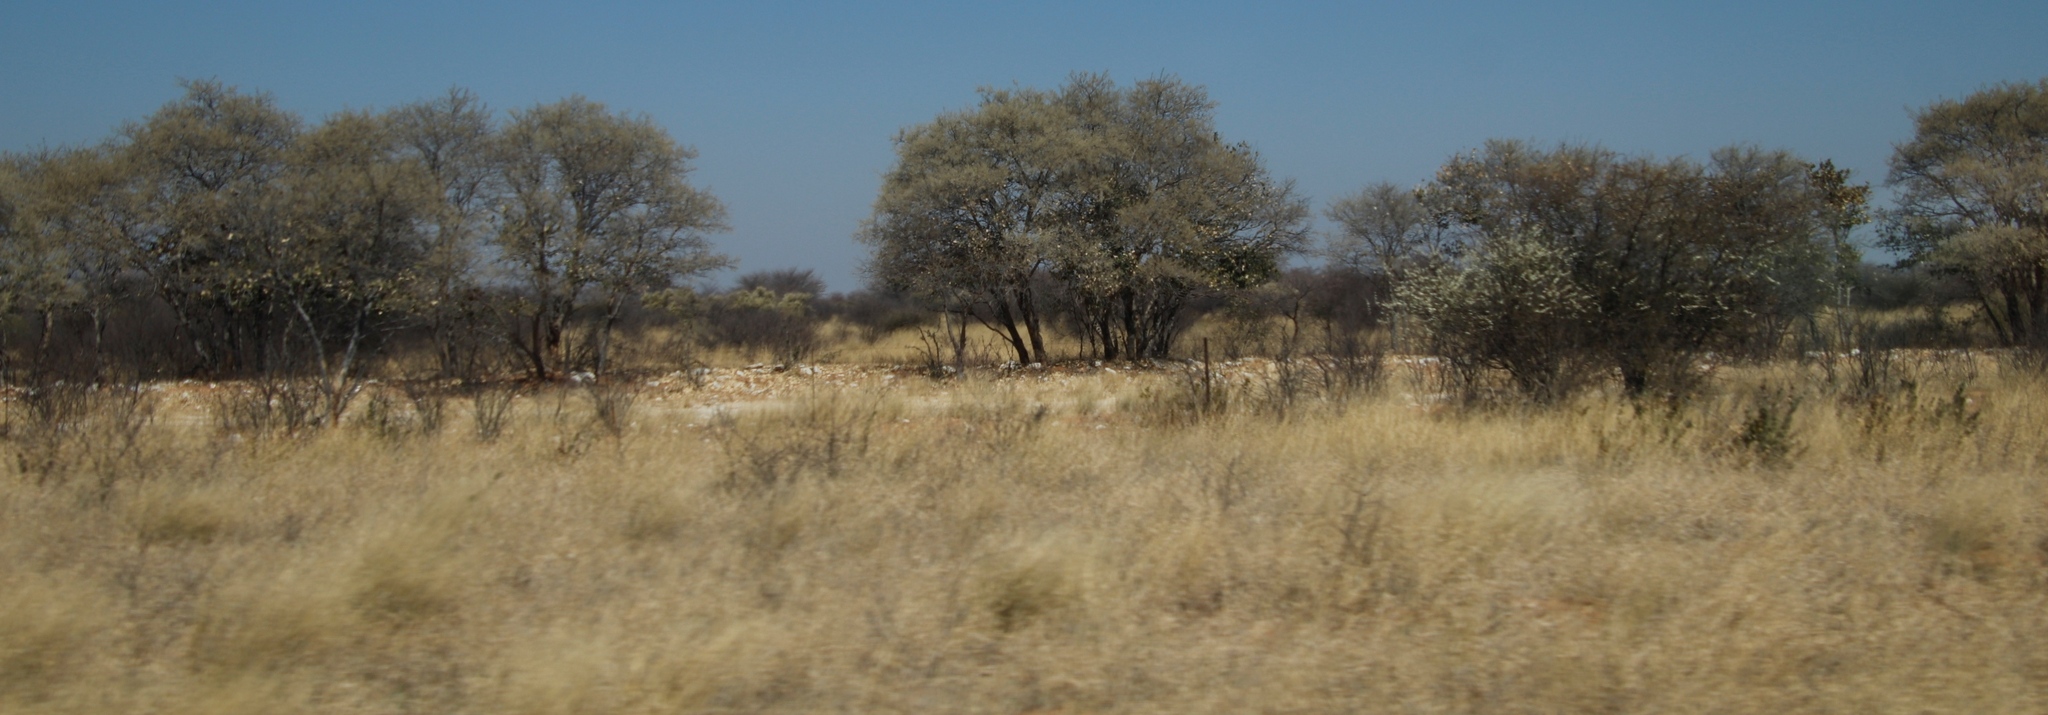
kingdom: Plantae
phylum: Tracheophyta
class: Magnoliopsida
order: Fabales
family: Fabaceae
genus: Senegalia
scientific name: Senegalia mellifera
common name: Hookthorn
